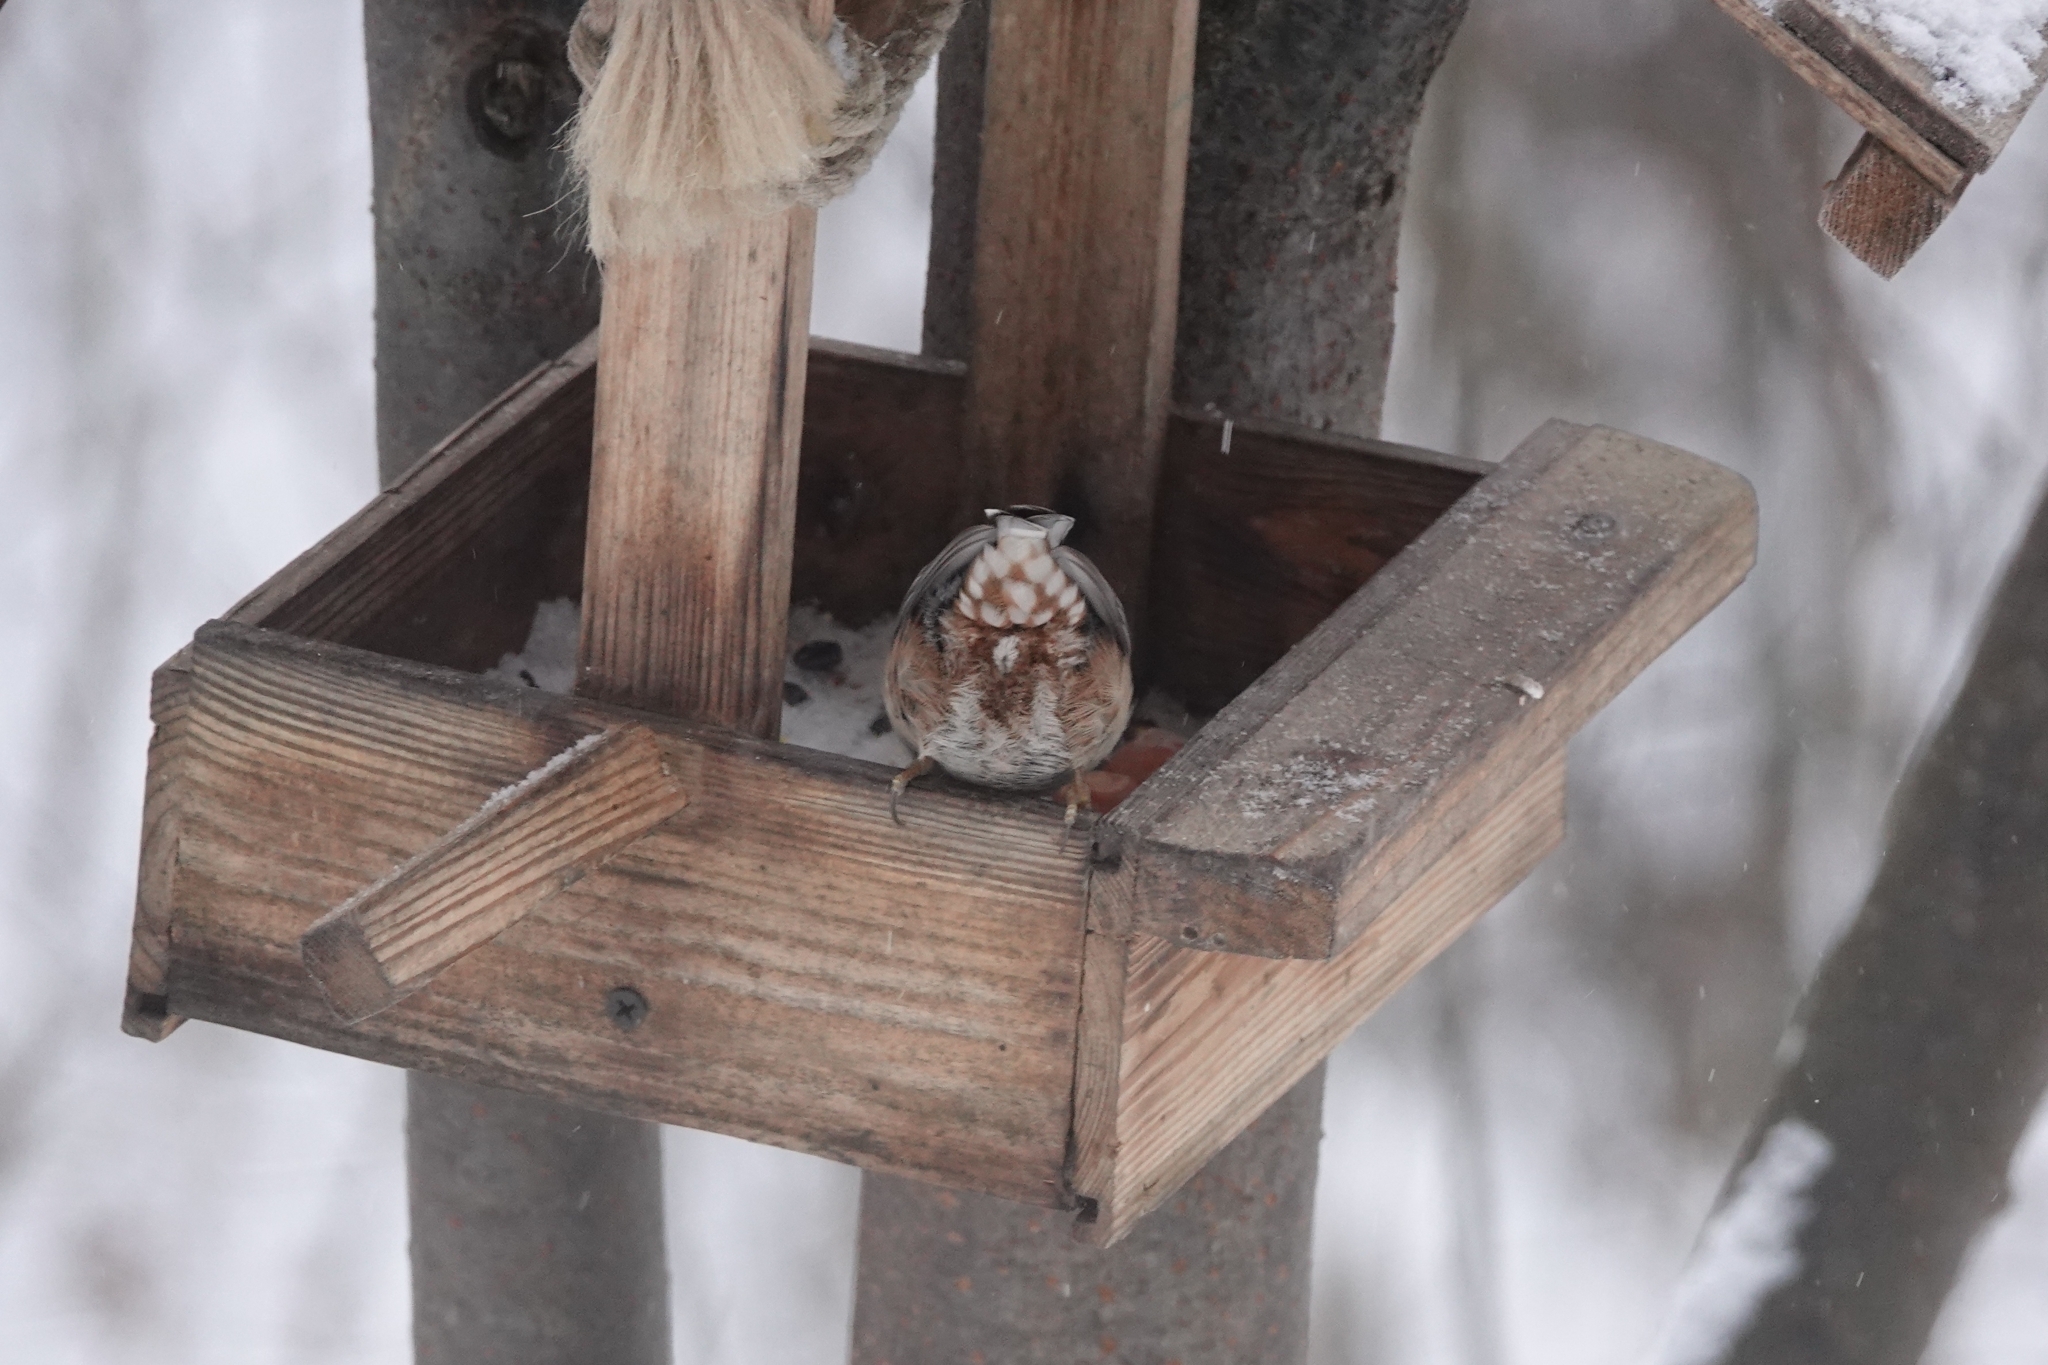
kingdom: Animalia
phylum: Chordata
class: Aves
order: Passeriformes
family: Sittidae
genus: Sitta
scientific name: Sitta europaea
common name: Eurasian nuthatch
